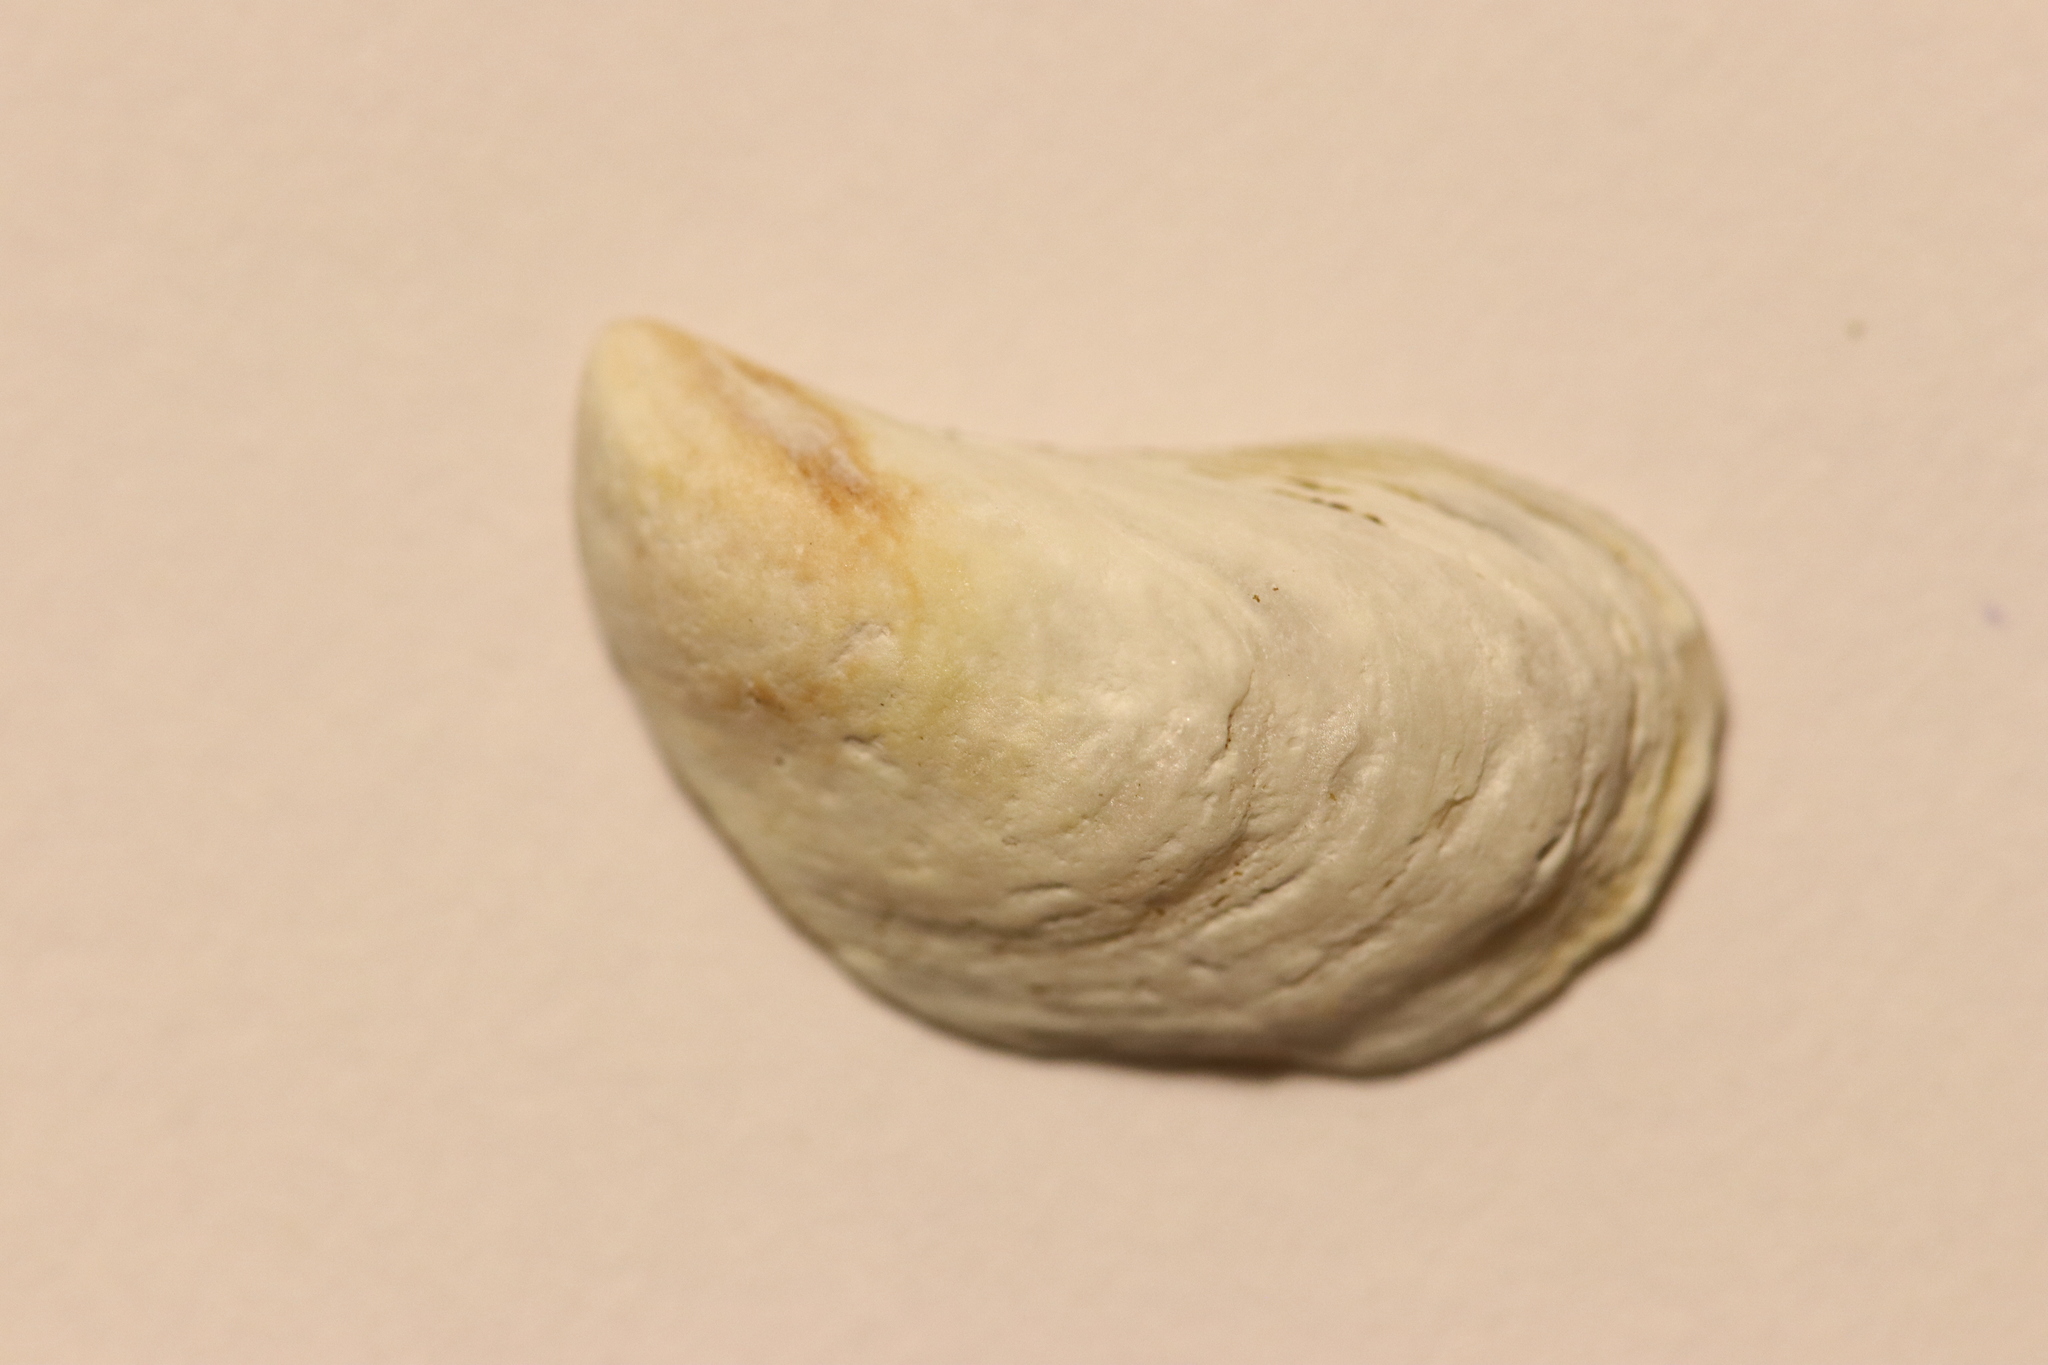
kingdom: Animalia
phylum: Mollusca
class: Bivalvia
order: Myida
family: Dreissenidae
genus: Dreissena
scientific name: Dreissena bugensis
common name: Quagga mussel
